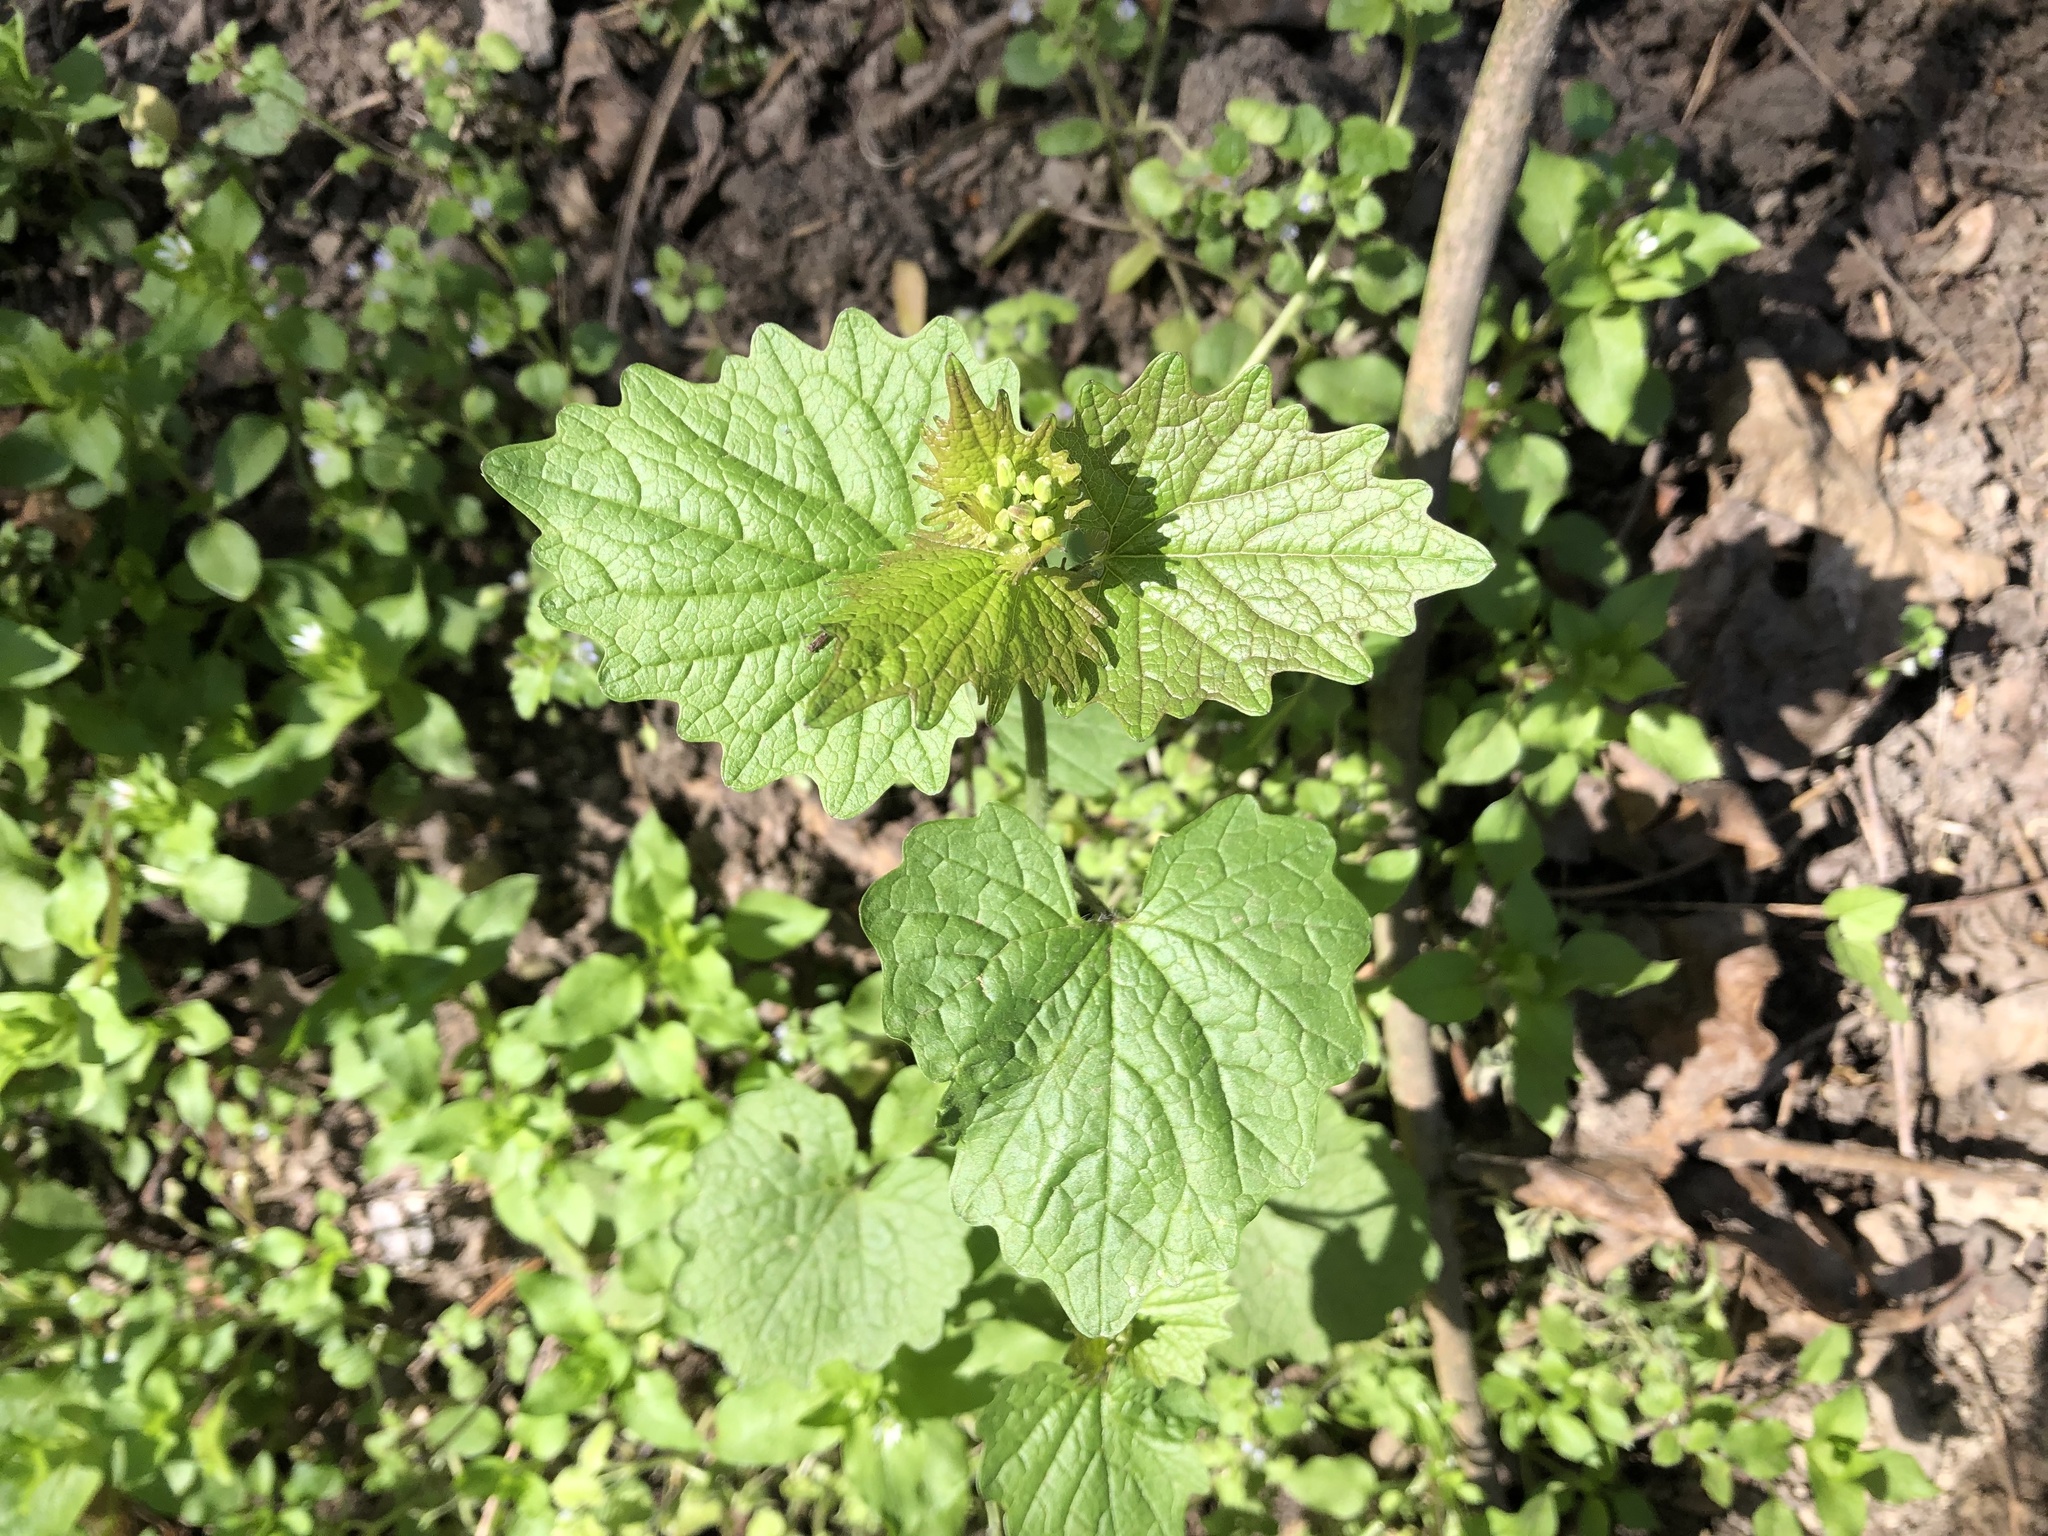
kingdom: Plantae
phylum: Tracheophyta
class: Magnoliopsida
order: Brassicales
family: Brassicaceae
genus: Alliaria
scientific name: Alliaria petiolata
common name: Garlic mustard
